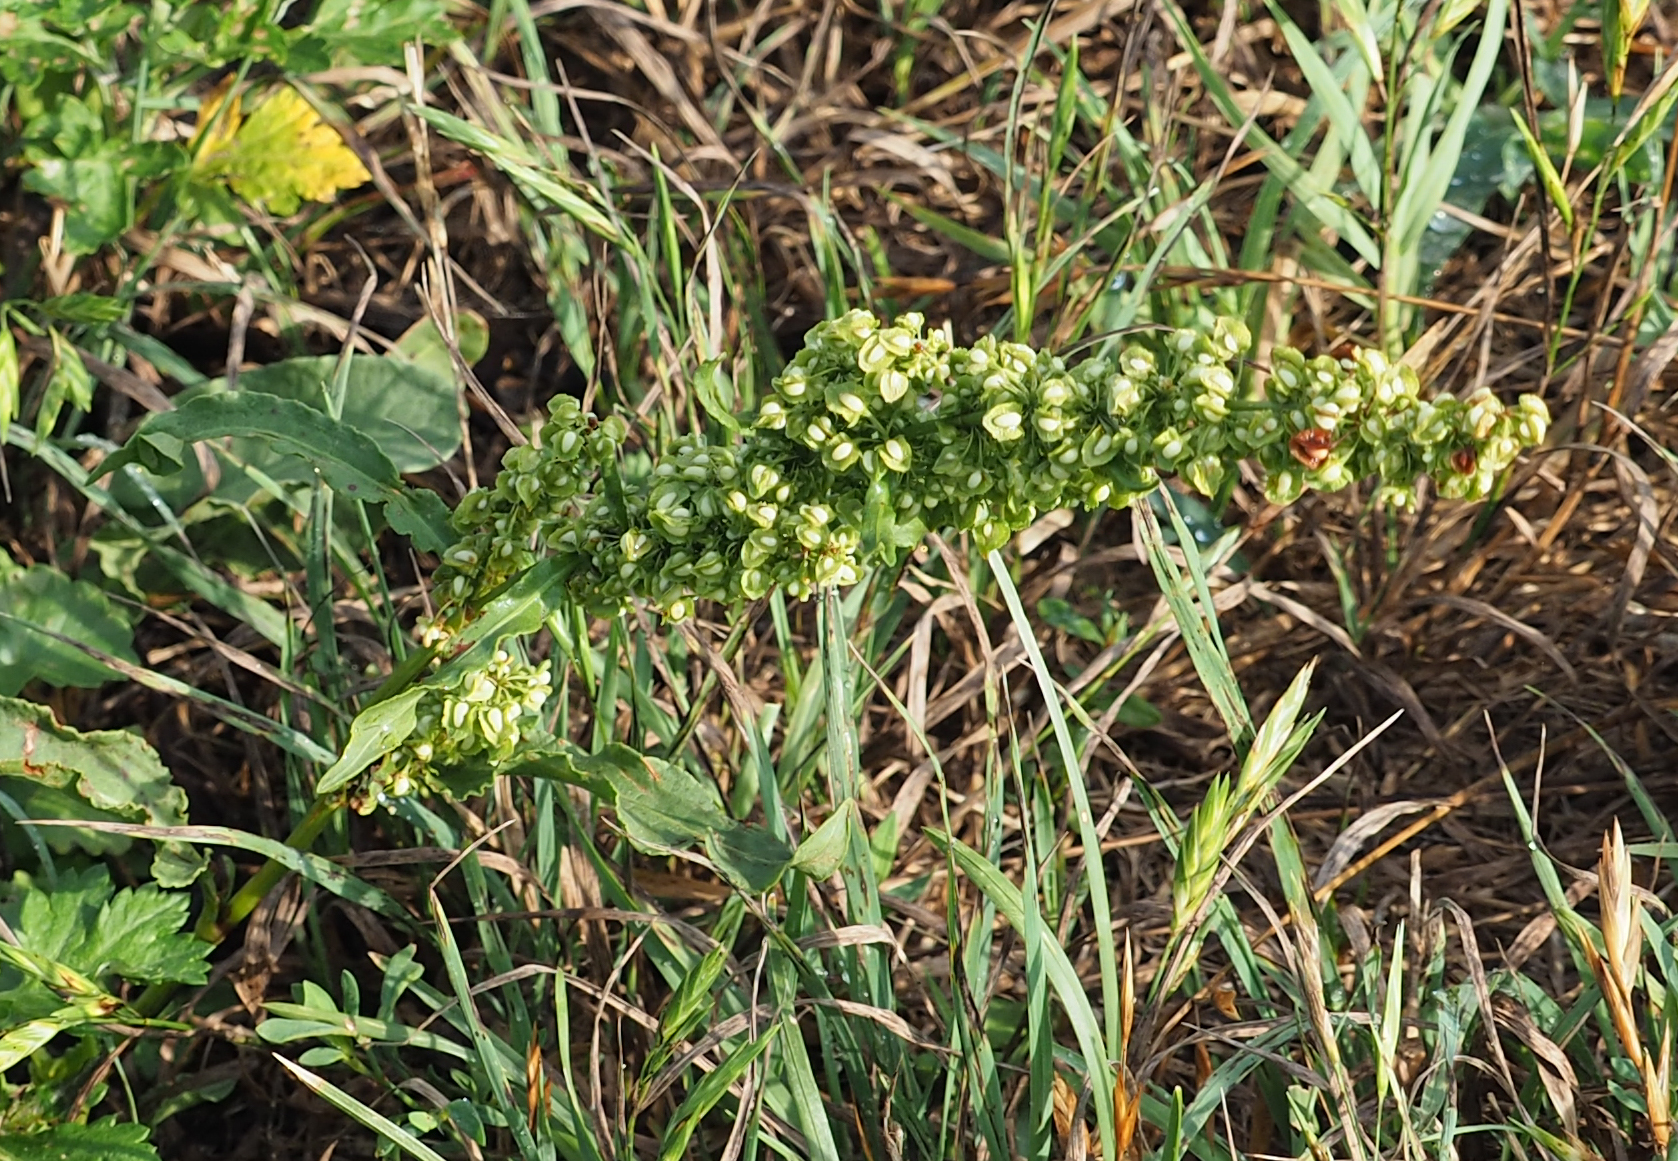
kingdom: Plantae
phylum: Tracheophyta
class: Magnoliopsida
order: Caryophyllales
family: Polygonaceae
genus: Rumex
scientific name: Rumex crispus
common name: Curled dock
